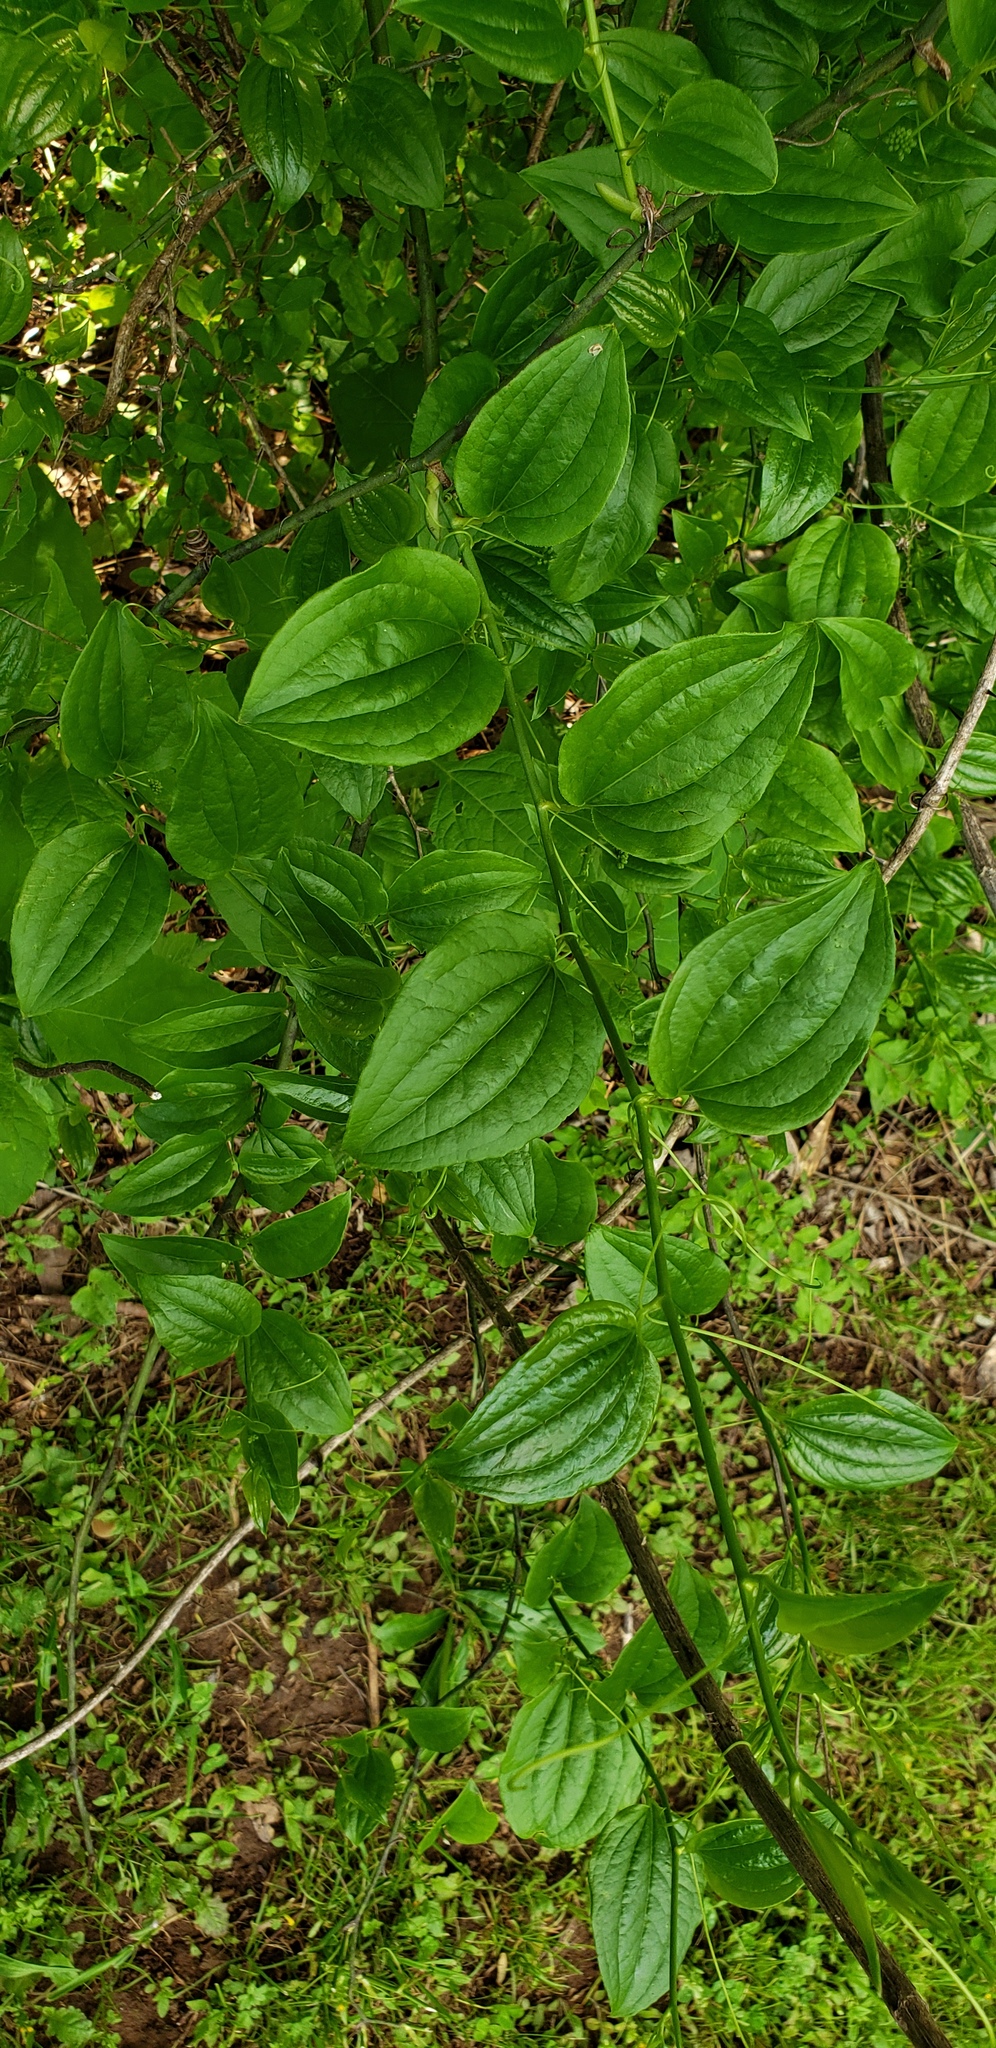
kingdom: Plantae
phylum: Tracheophyta
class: Liliopsida
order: Liliales
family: Smilacaceae
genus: Smilax
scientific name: Smilax tamnoides
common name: Hellfetter
